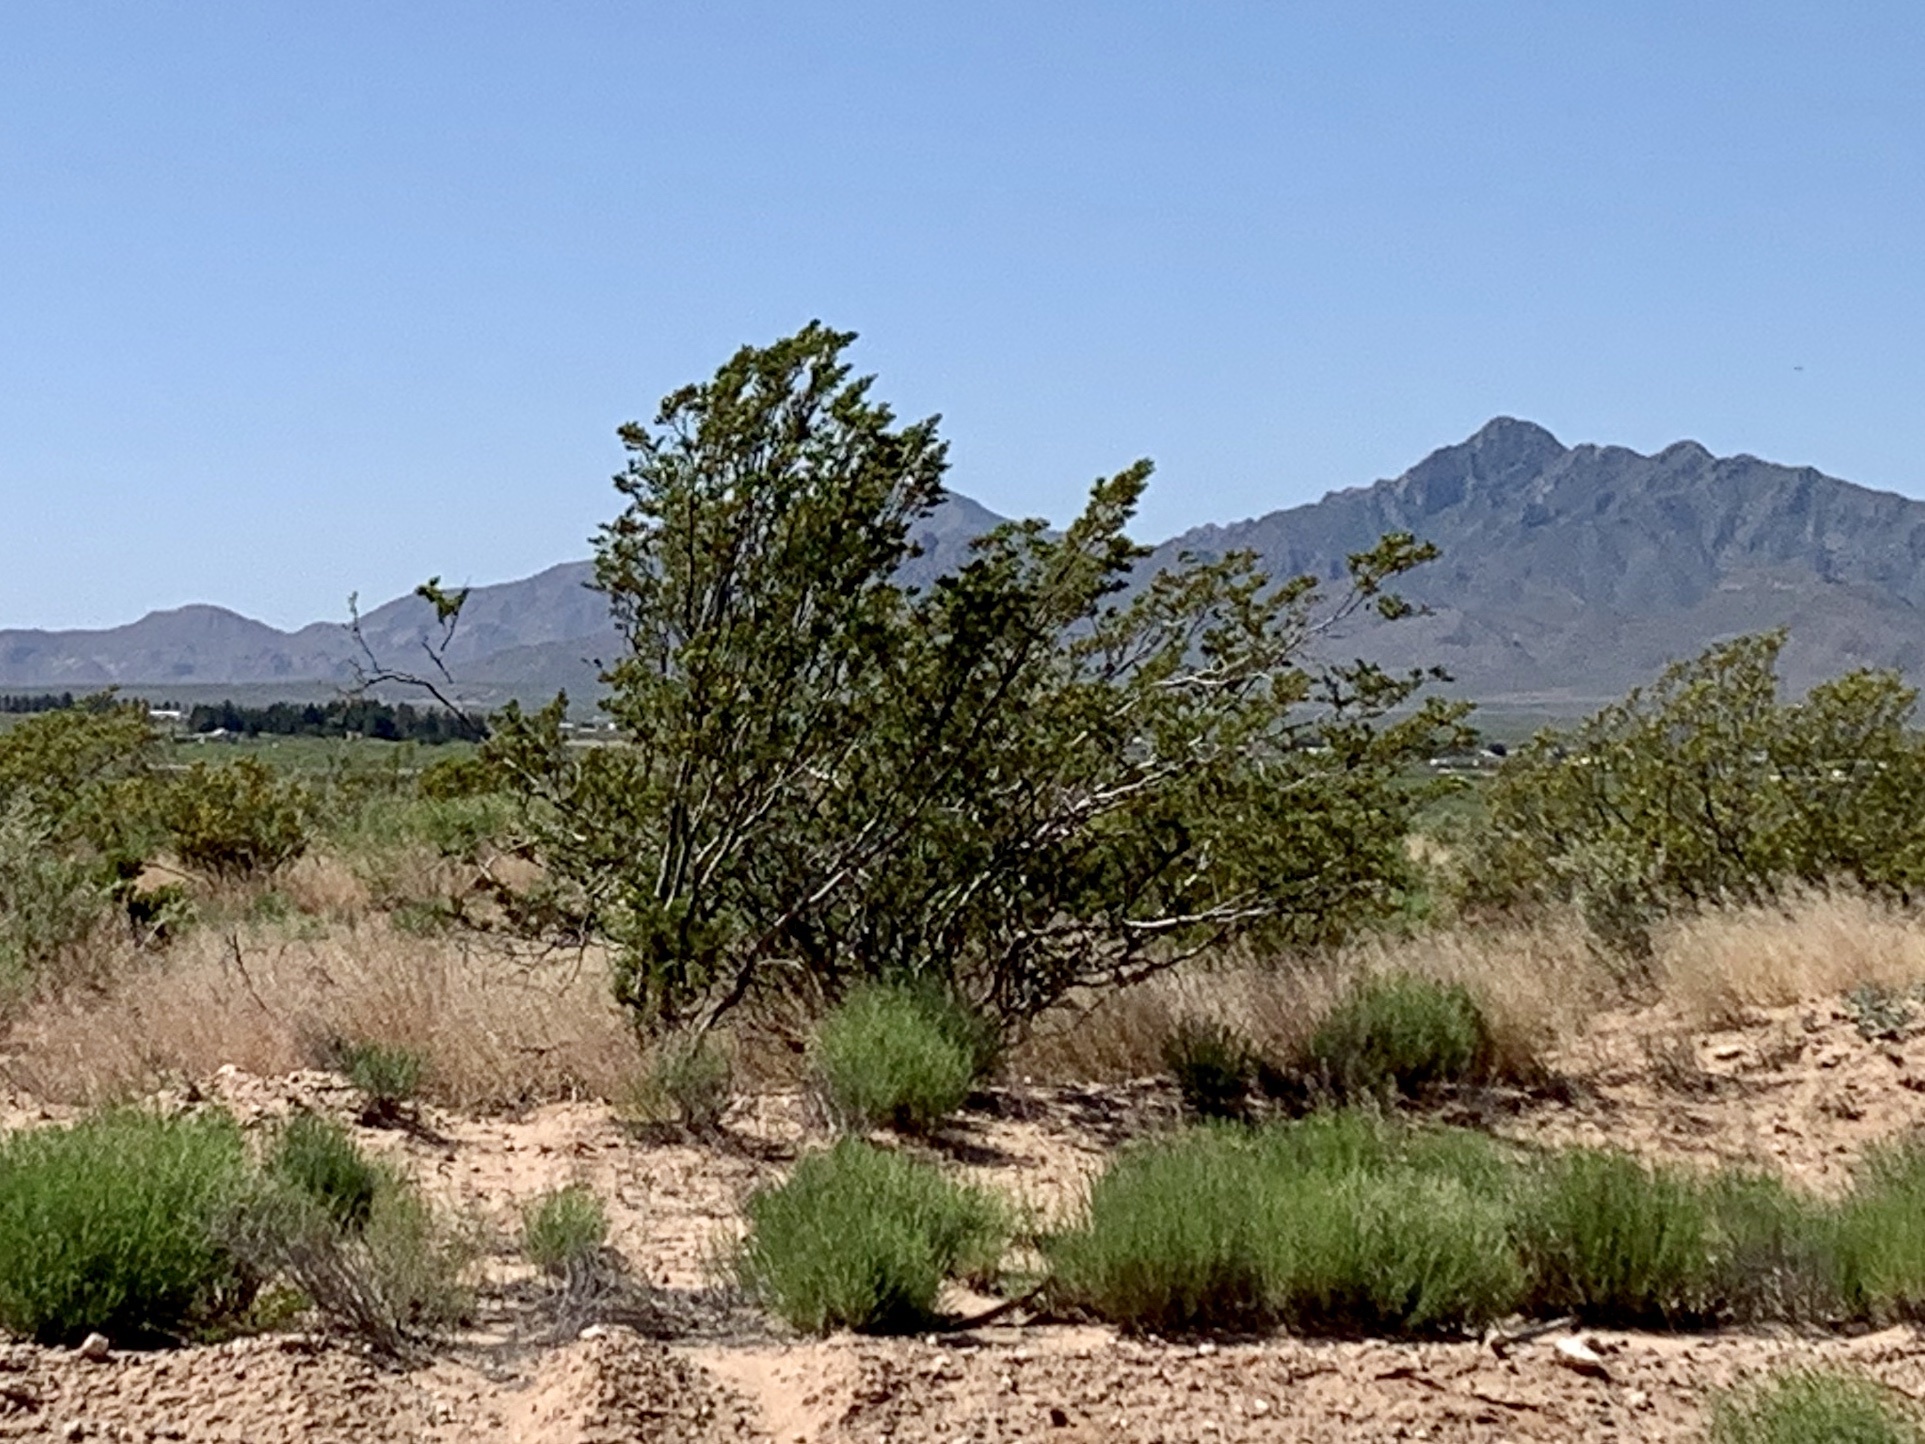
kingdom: Plantae
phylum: Tracheophyta
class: Magnoliopsida
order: Zygophyllales
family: Zygophyllaceae
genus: Larrea
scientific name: Larrea tridentata
